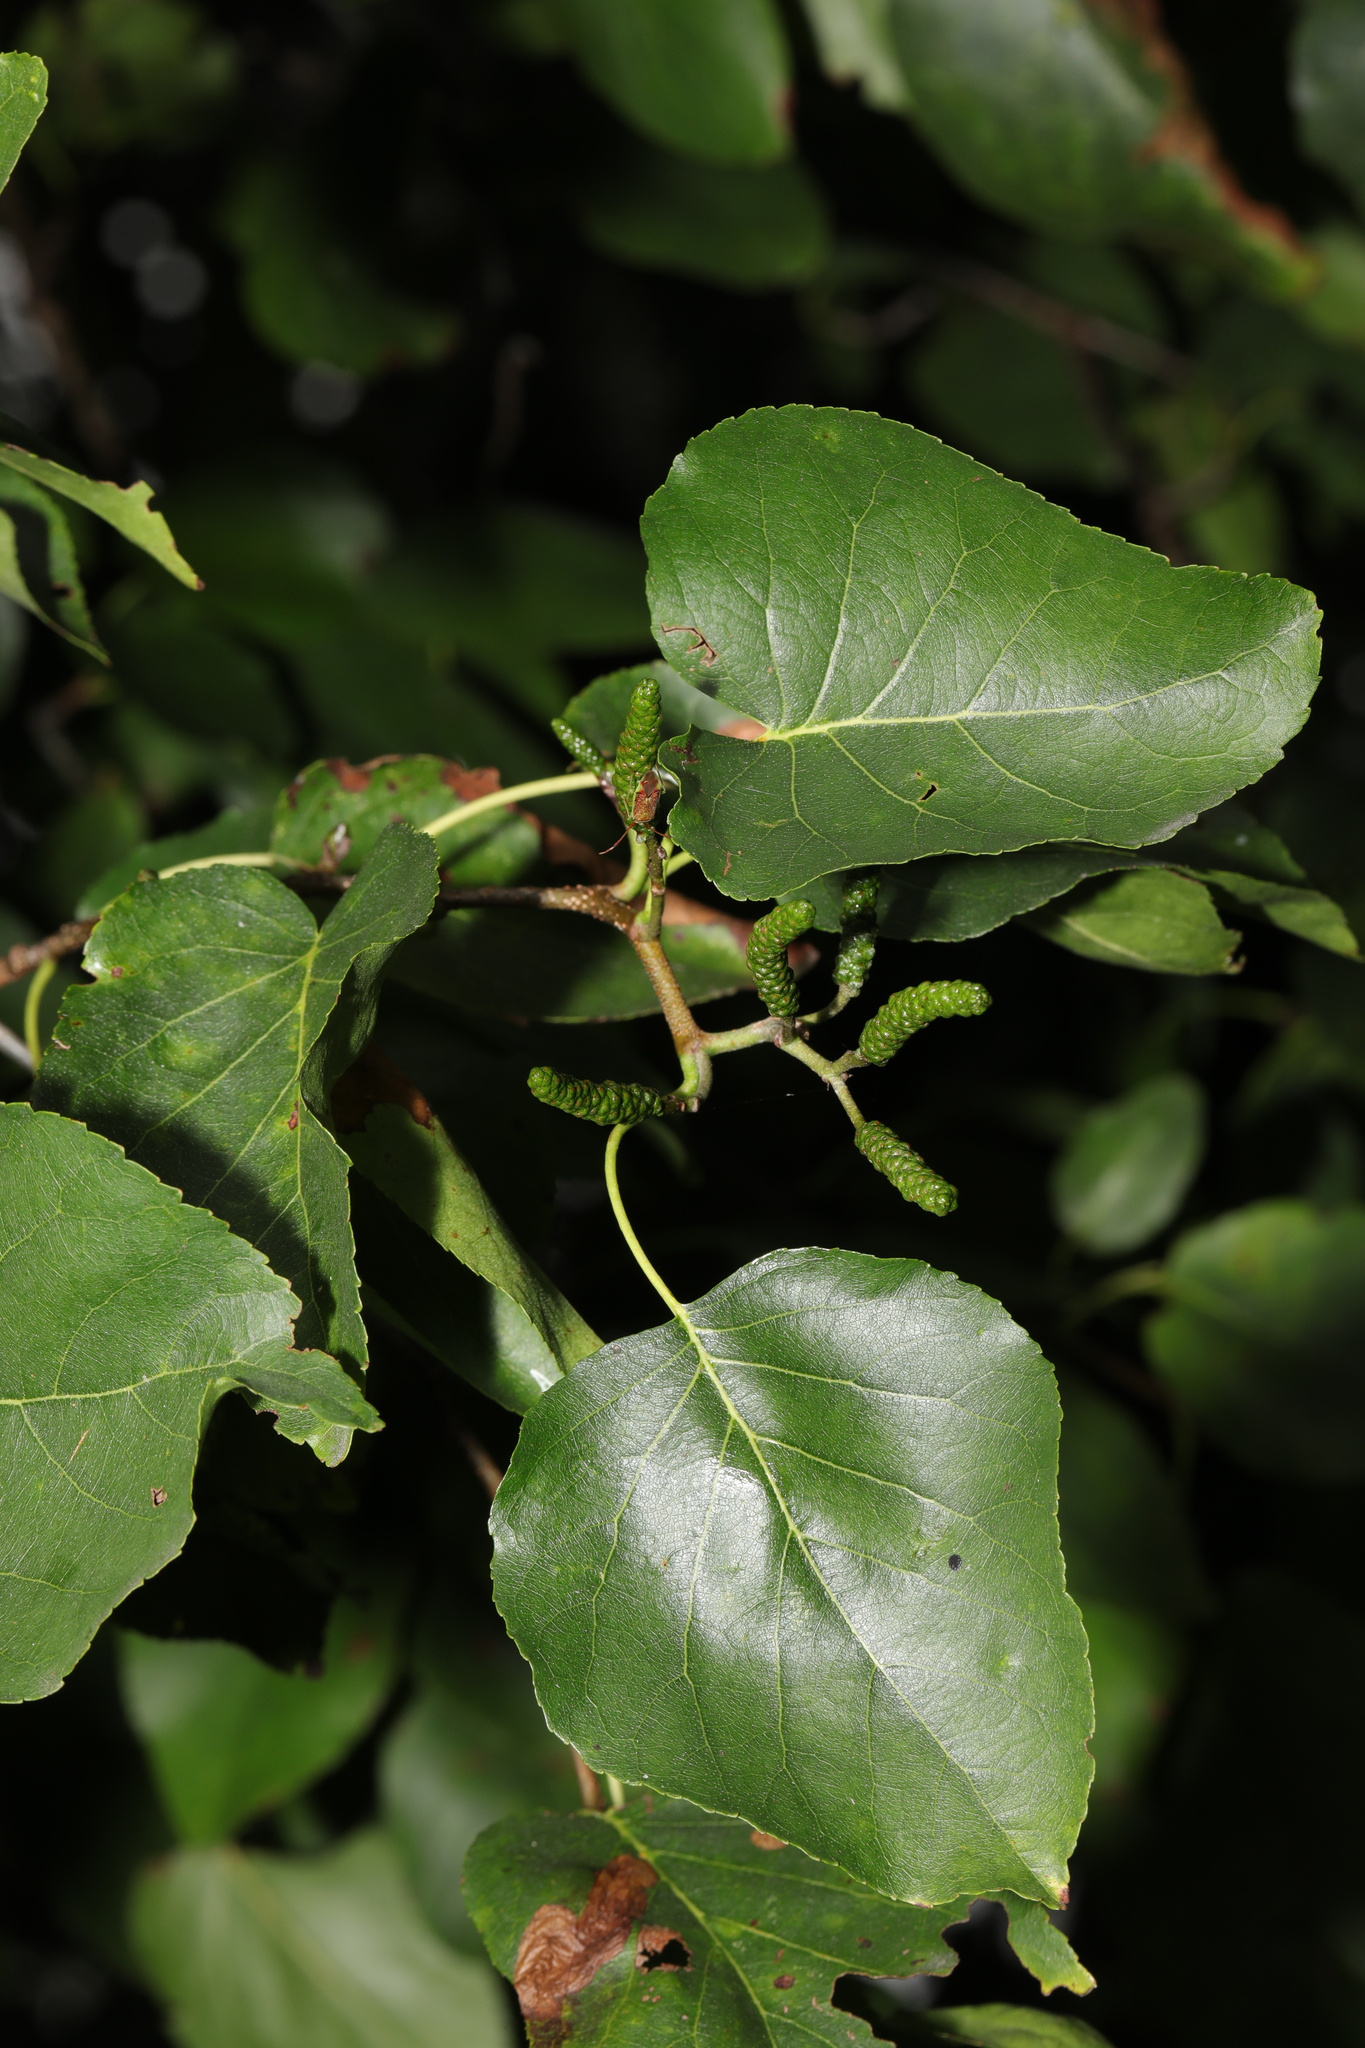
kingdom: Plantae
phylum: Tracheophyta
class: Magnoliopsida
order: Fagales
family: Betulaceae
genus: Alnus
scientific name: Alnus cordata
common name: Italian alder
